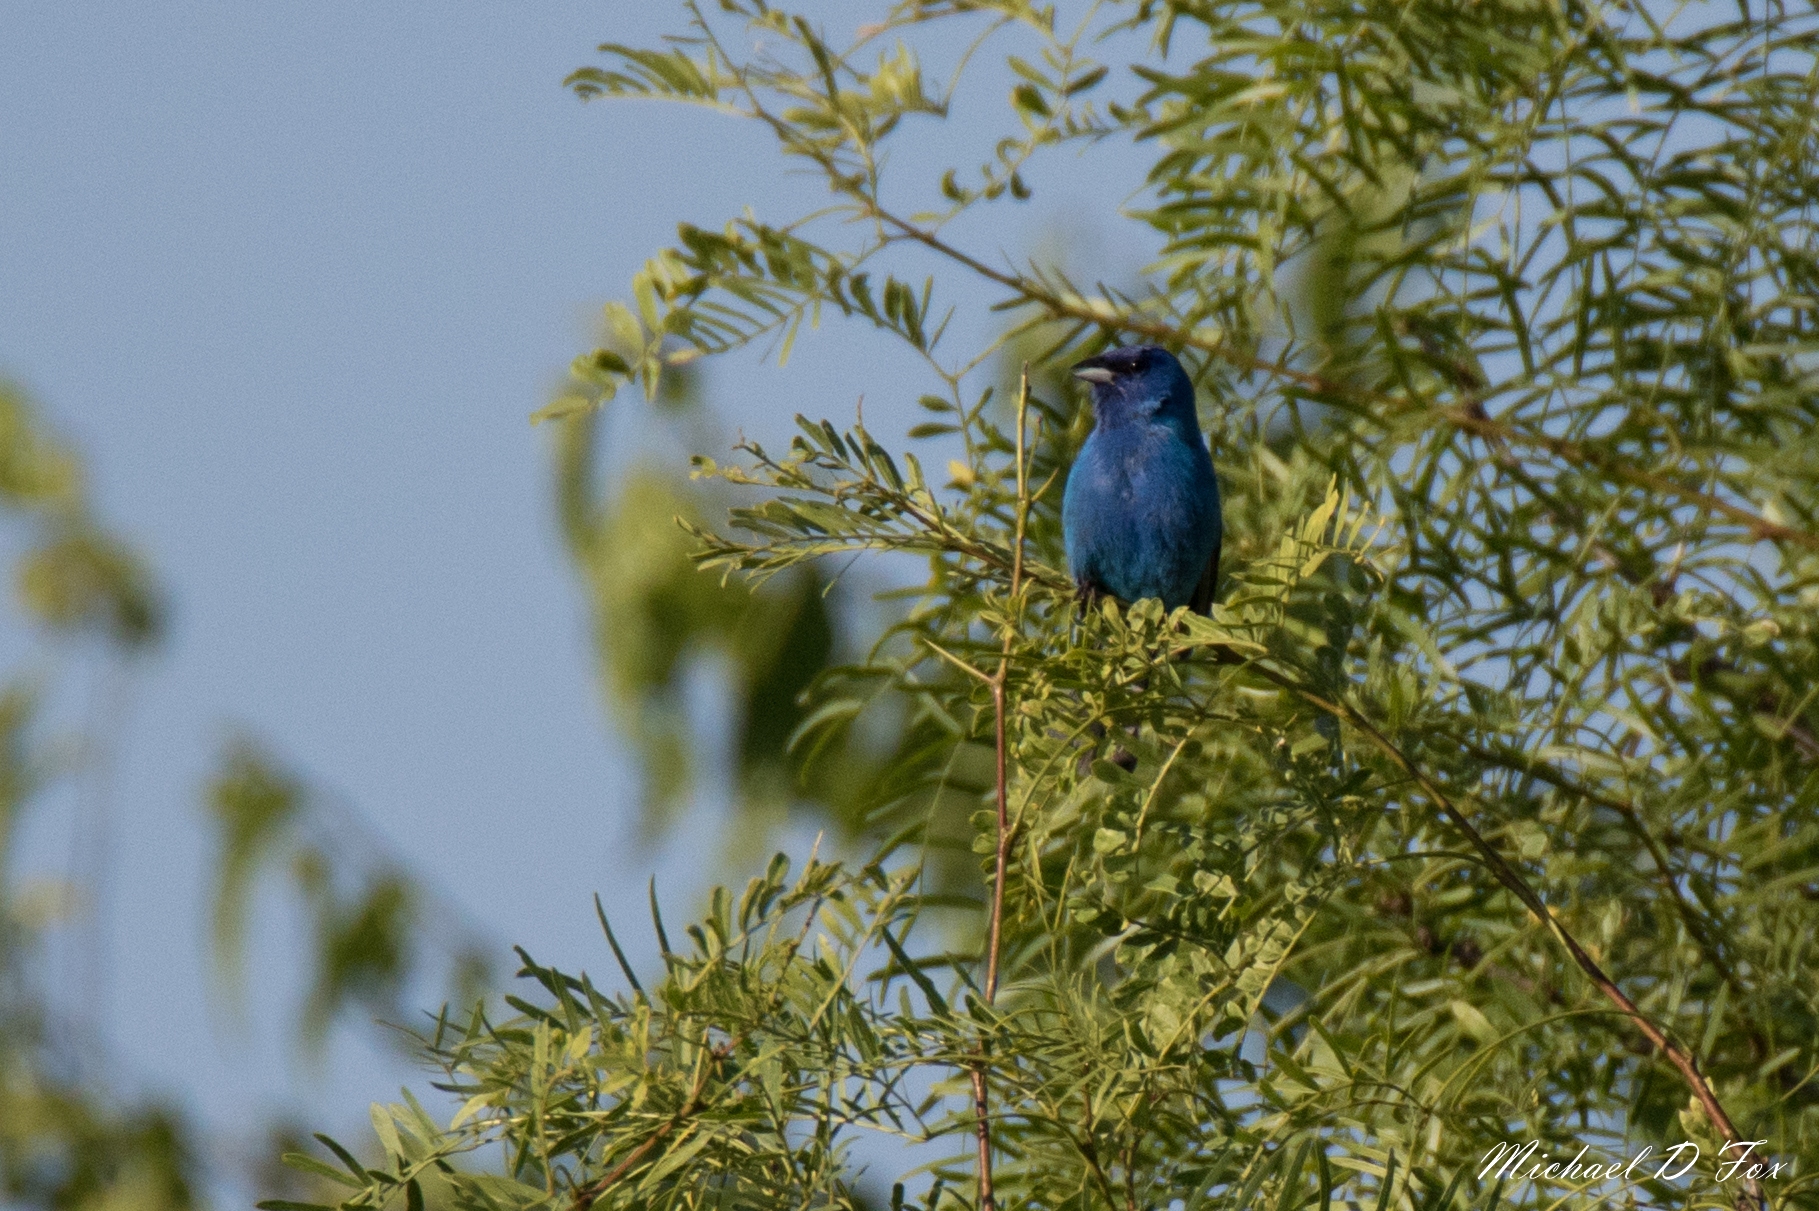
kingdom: Animalia
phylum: Chordata
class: Aves
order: Passeriformes
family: Cardinalidae
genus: Passerina
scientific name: Passerina cyanea
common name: Indigo bunting
